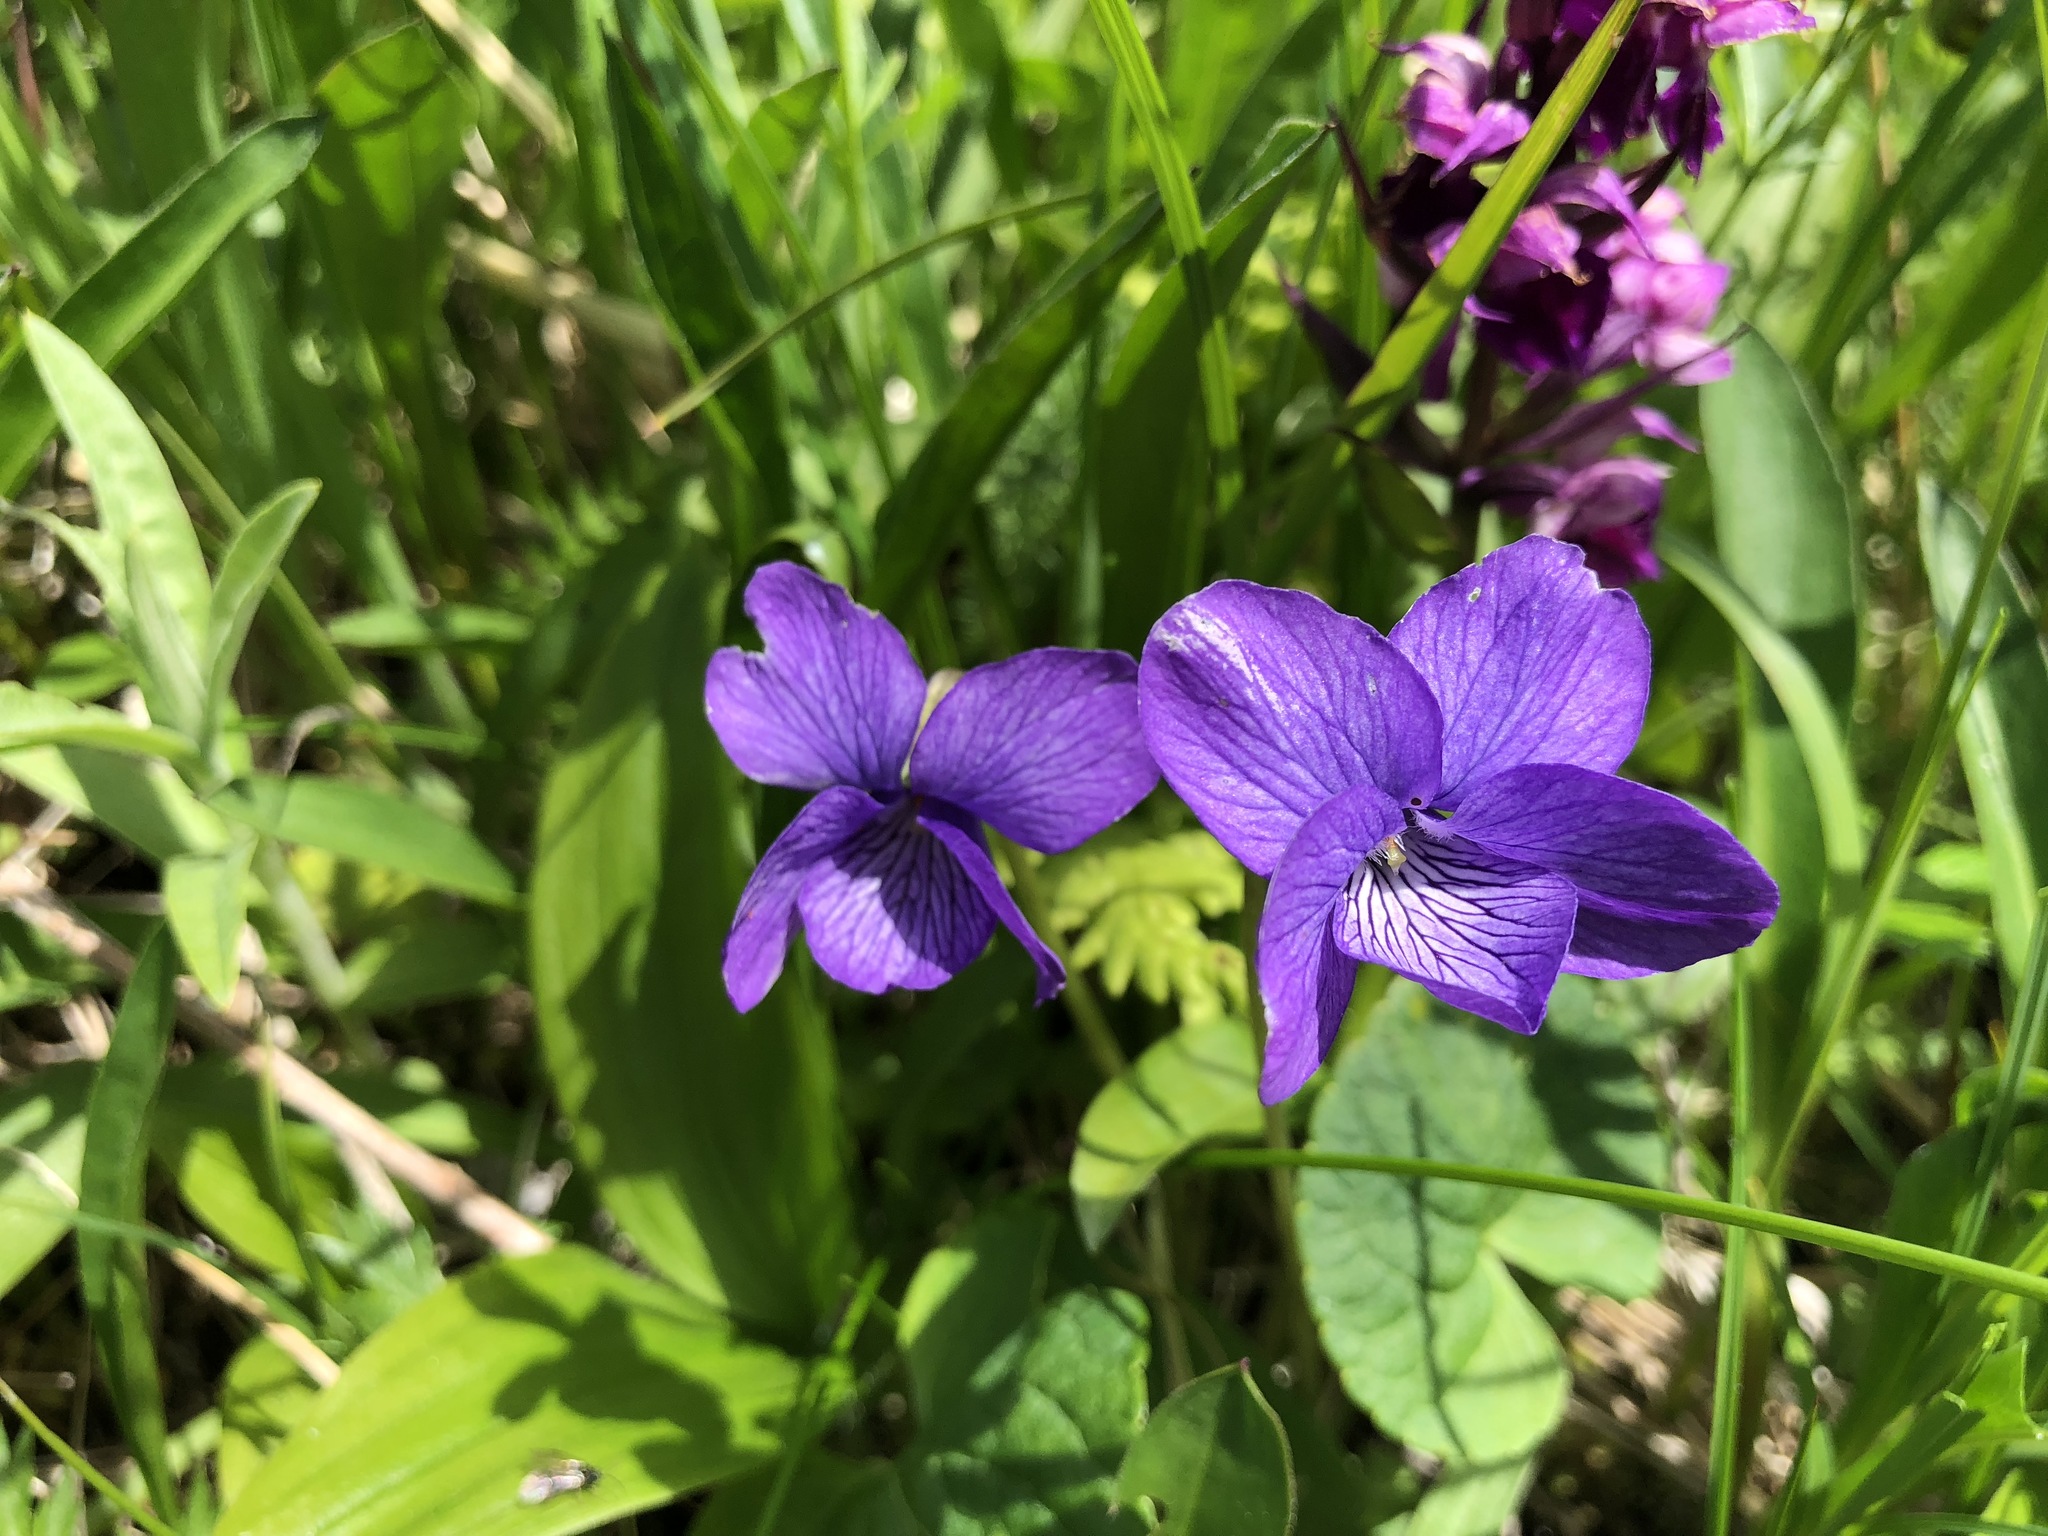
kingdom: Plantae
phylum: Tracheophyta
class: Magnoliopsida
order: Malpighiales
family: Violaceae
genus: Viola
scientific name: Viola langsdorffii
